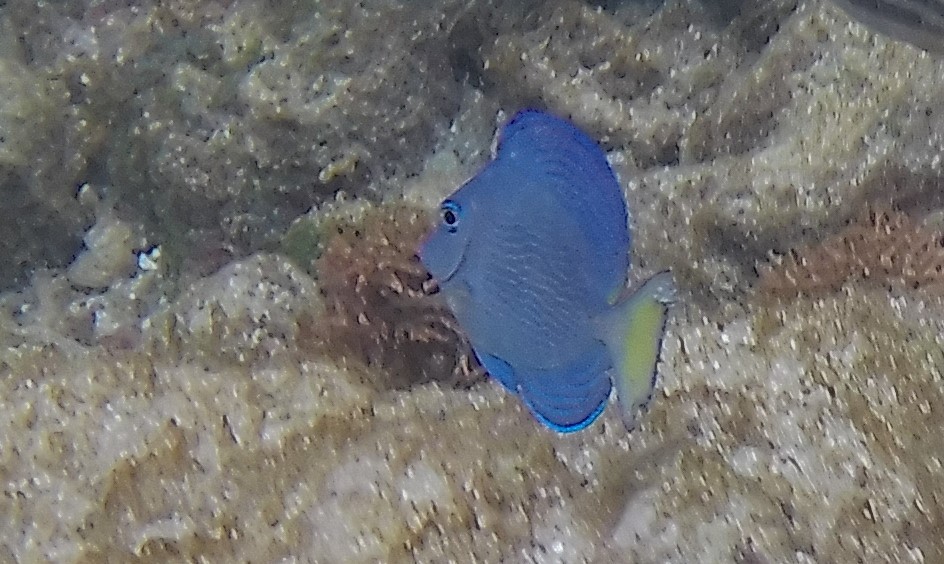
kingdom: Animalia
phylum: Chordata
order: Perciformes
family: Acanthuridae
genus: Acanthurus
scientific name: Acanthurus coeruleus
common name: Blue tang
